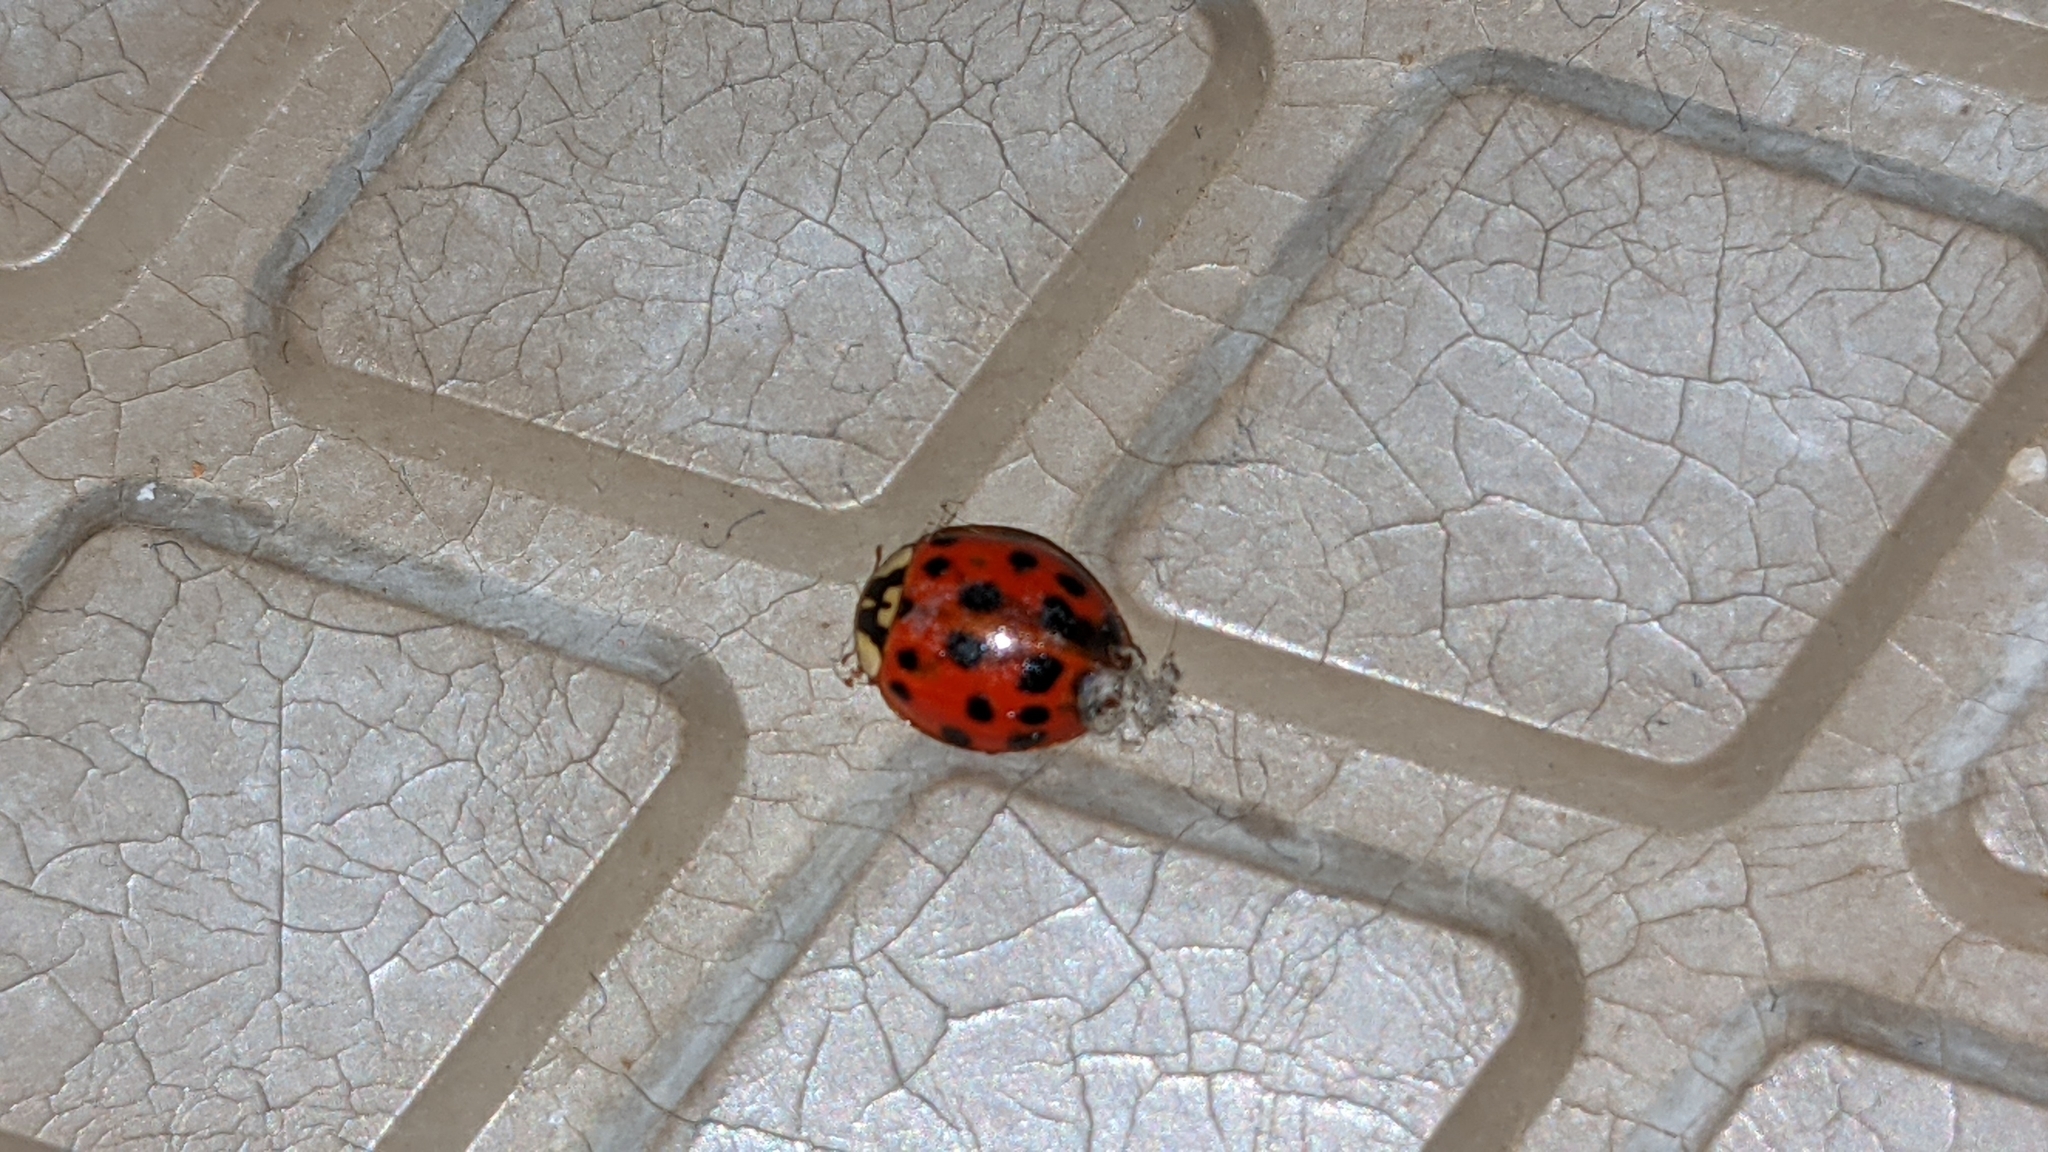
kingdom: Animalia
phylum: Arthropoda
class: Insecta
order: Coleoptera
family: Coccinellidae
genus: Harmonia
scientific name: Harmonia axyridis
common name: Harlequin ladybird
